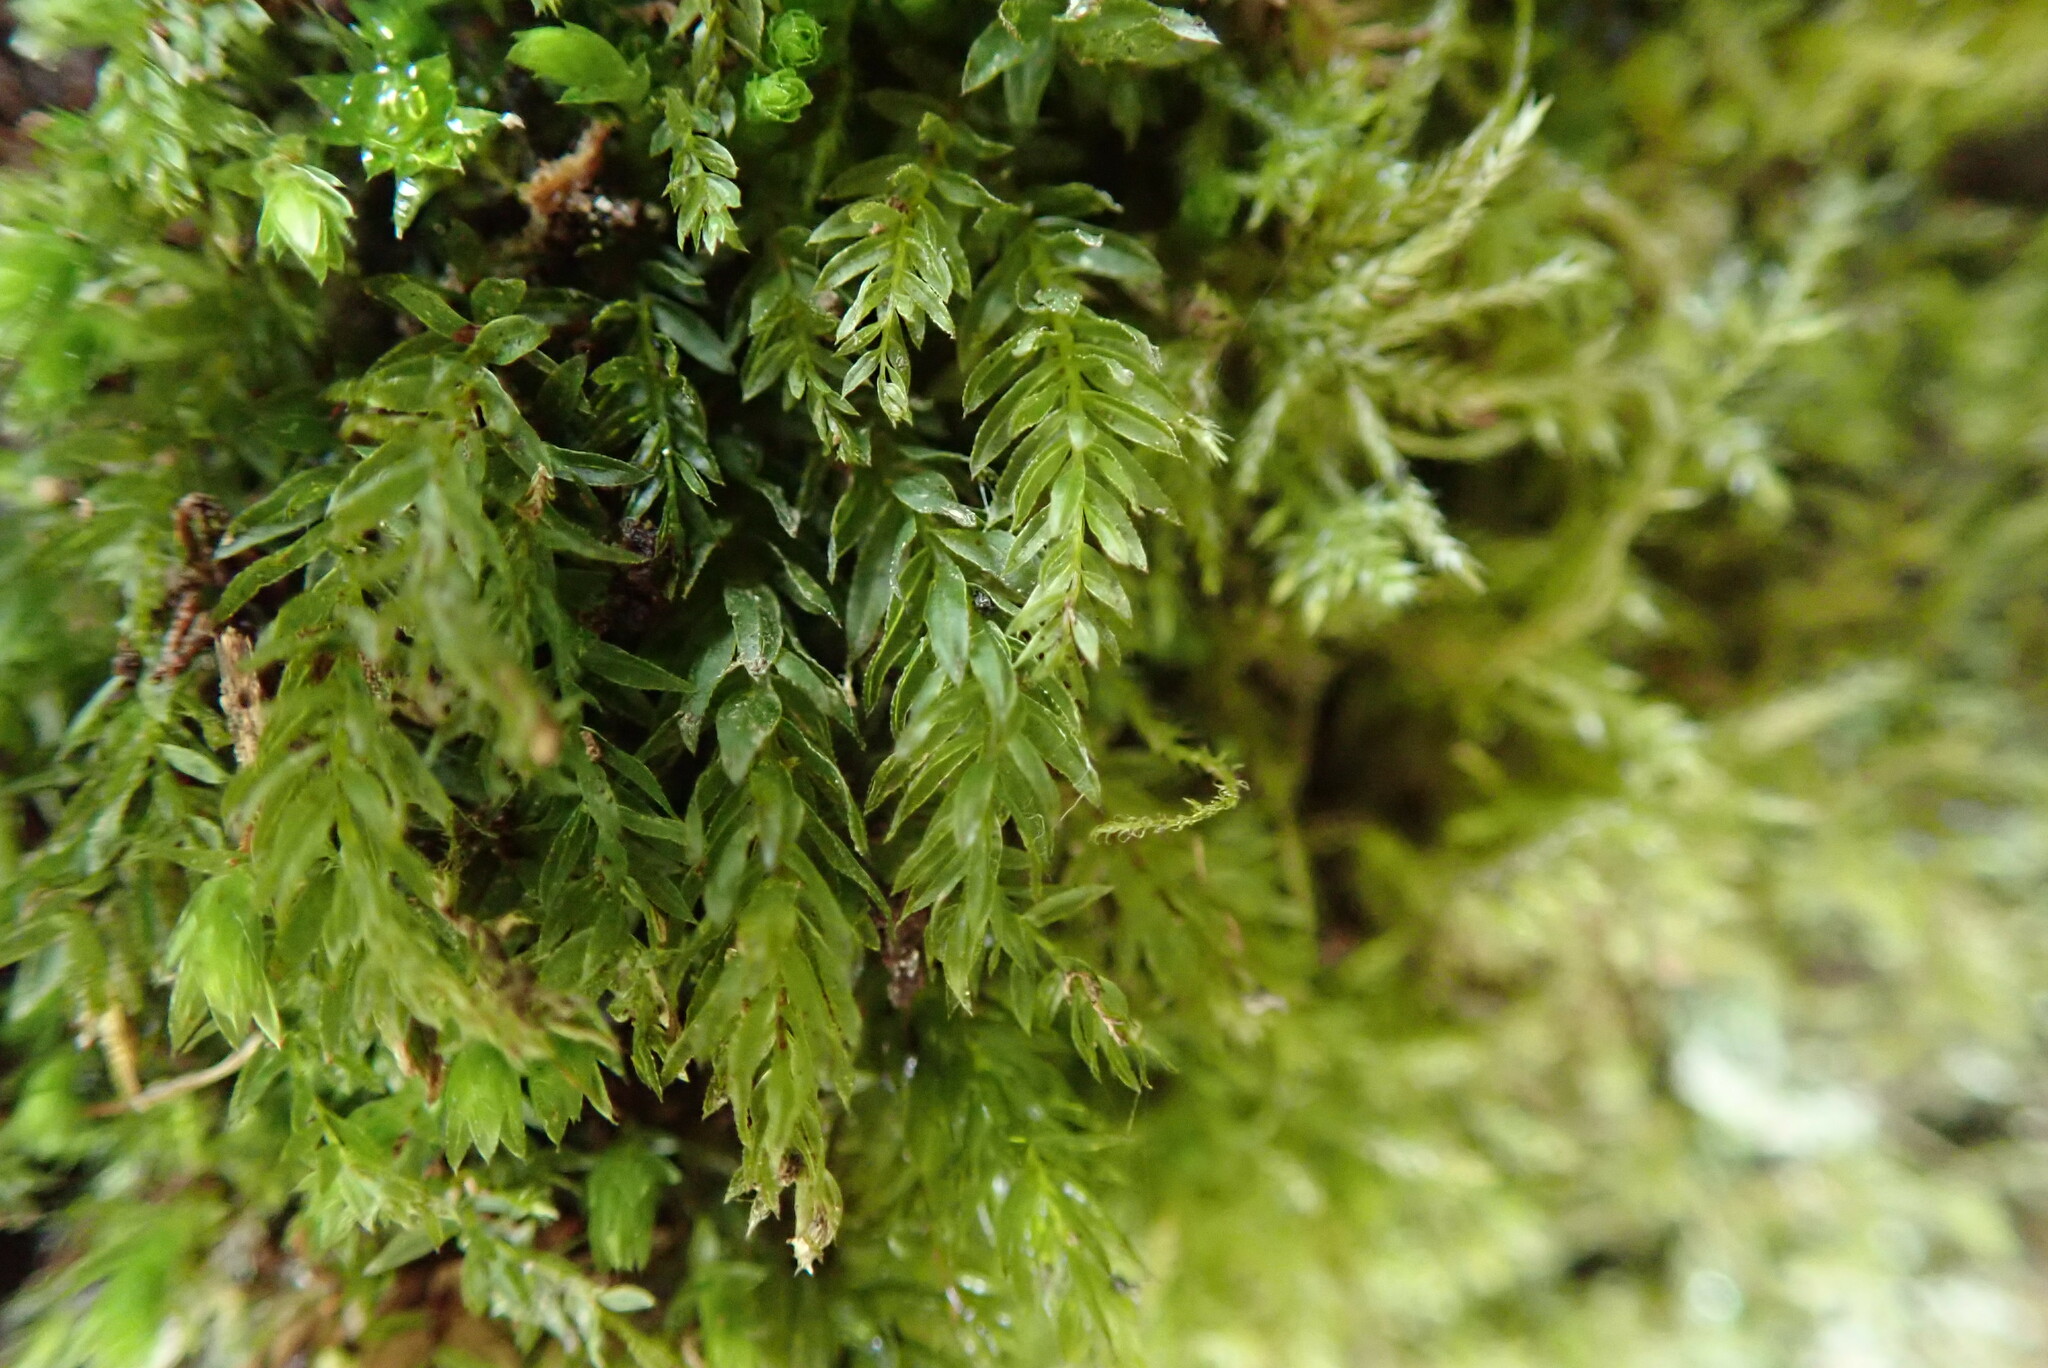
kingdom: Plantae
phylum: Bryophyta
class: Bryopsida
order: Bryales
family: Mniaceae
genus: Mnium
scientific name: Mnium hornum
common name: Swan's-neck leafy moss
